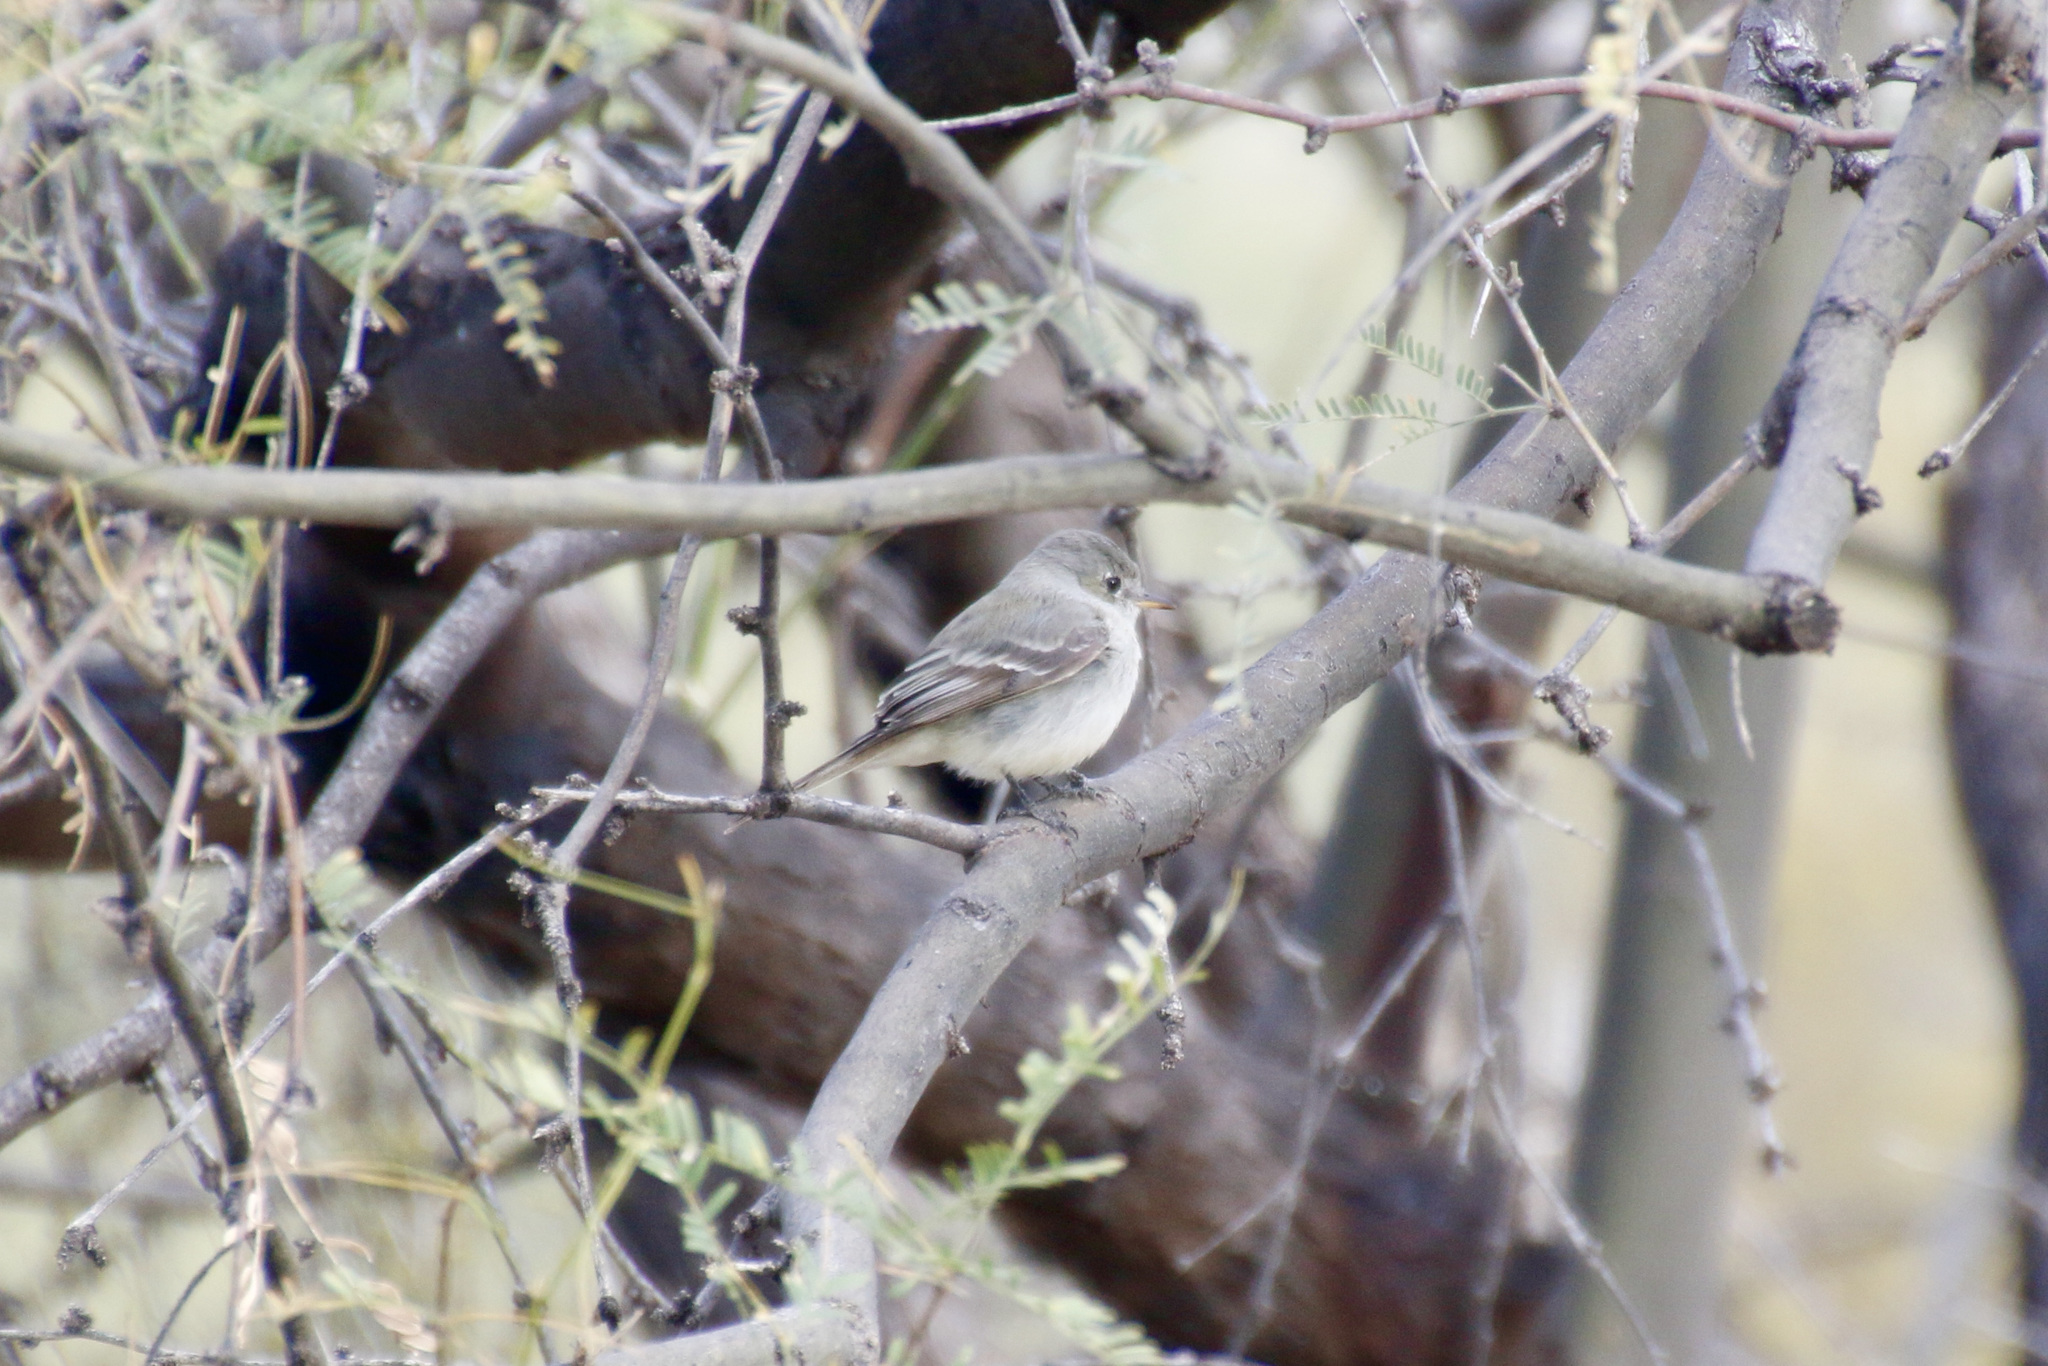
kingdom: Animalia
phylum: Chordata
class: Aves
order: Passeriformes
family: Tyrannidae
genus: Empidonax
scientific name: Empidonax wrightii
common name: Gray flycatcher
